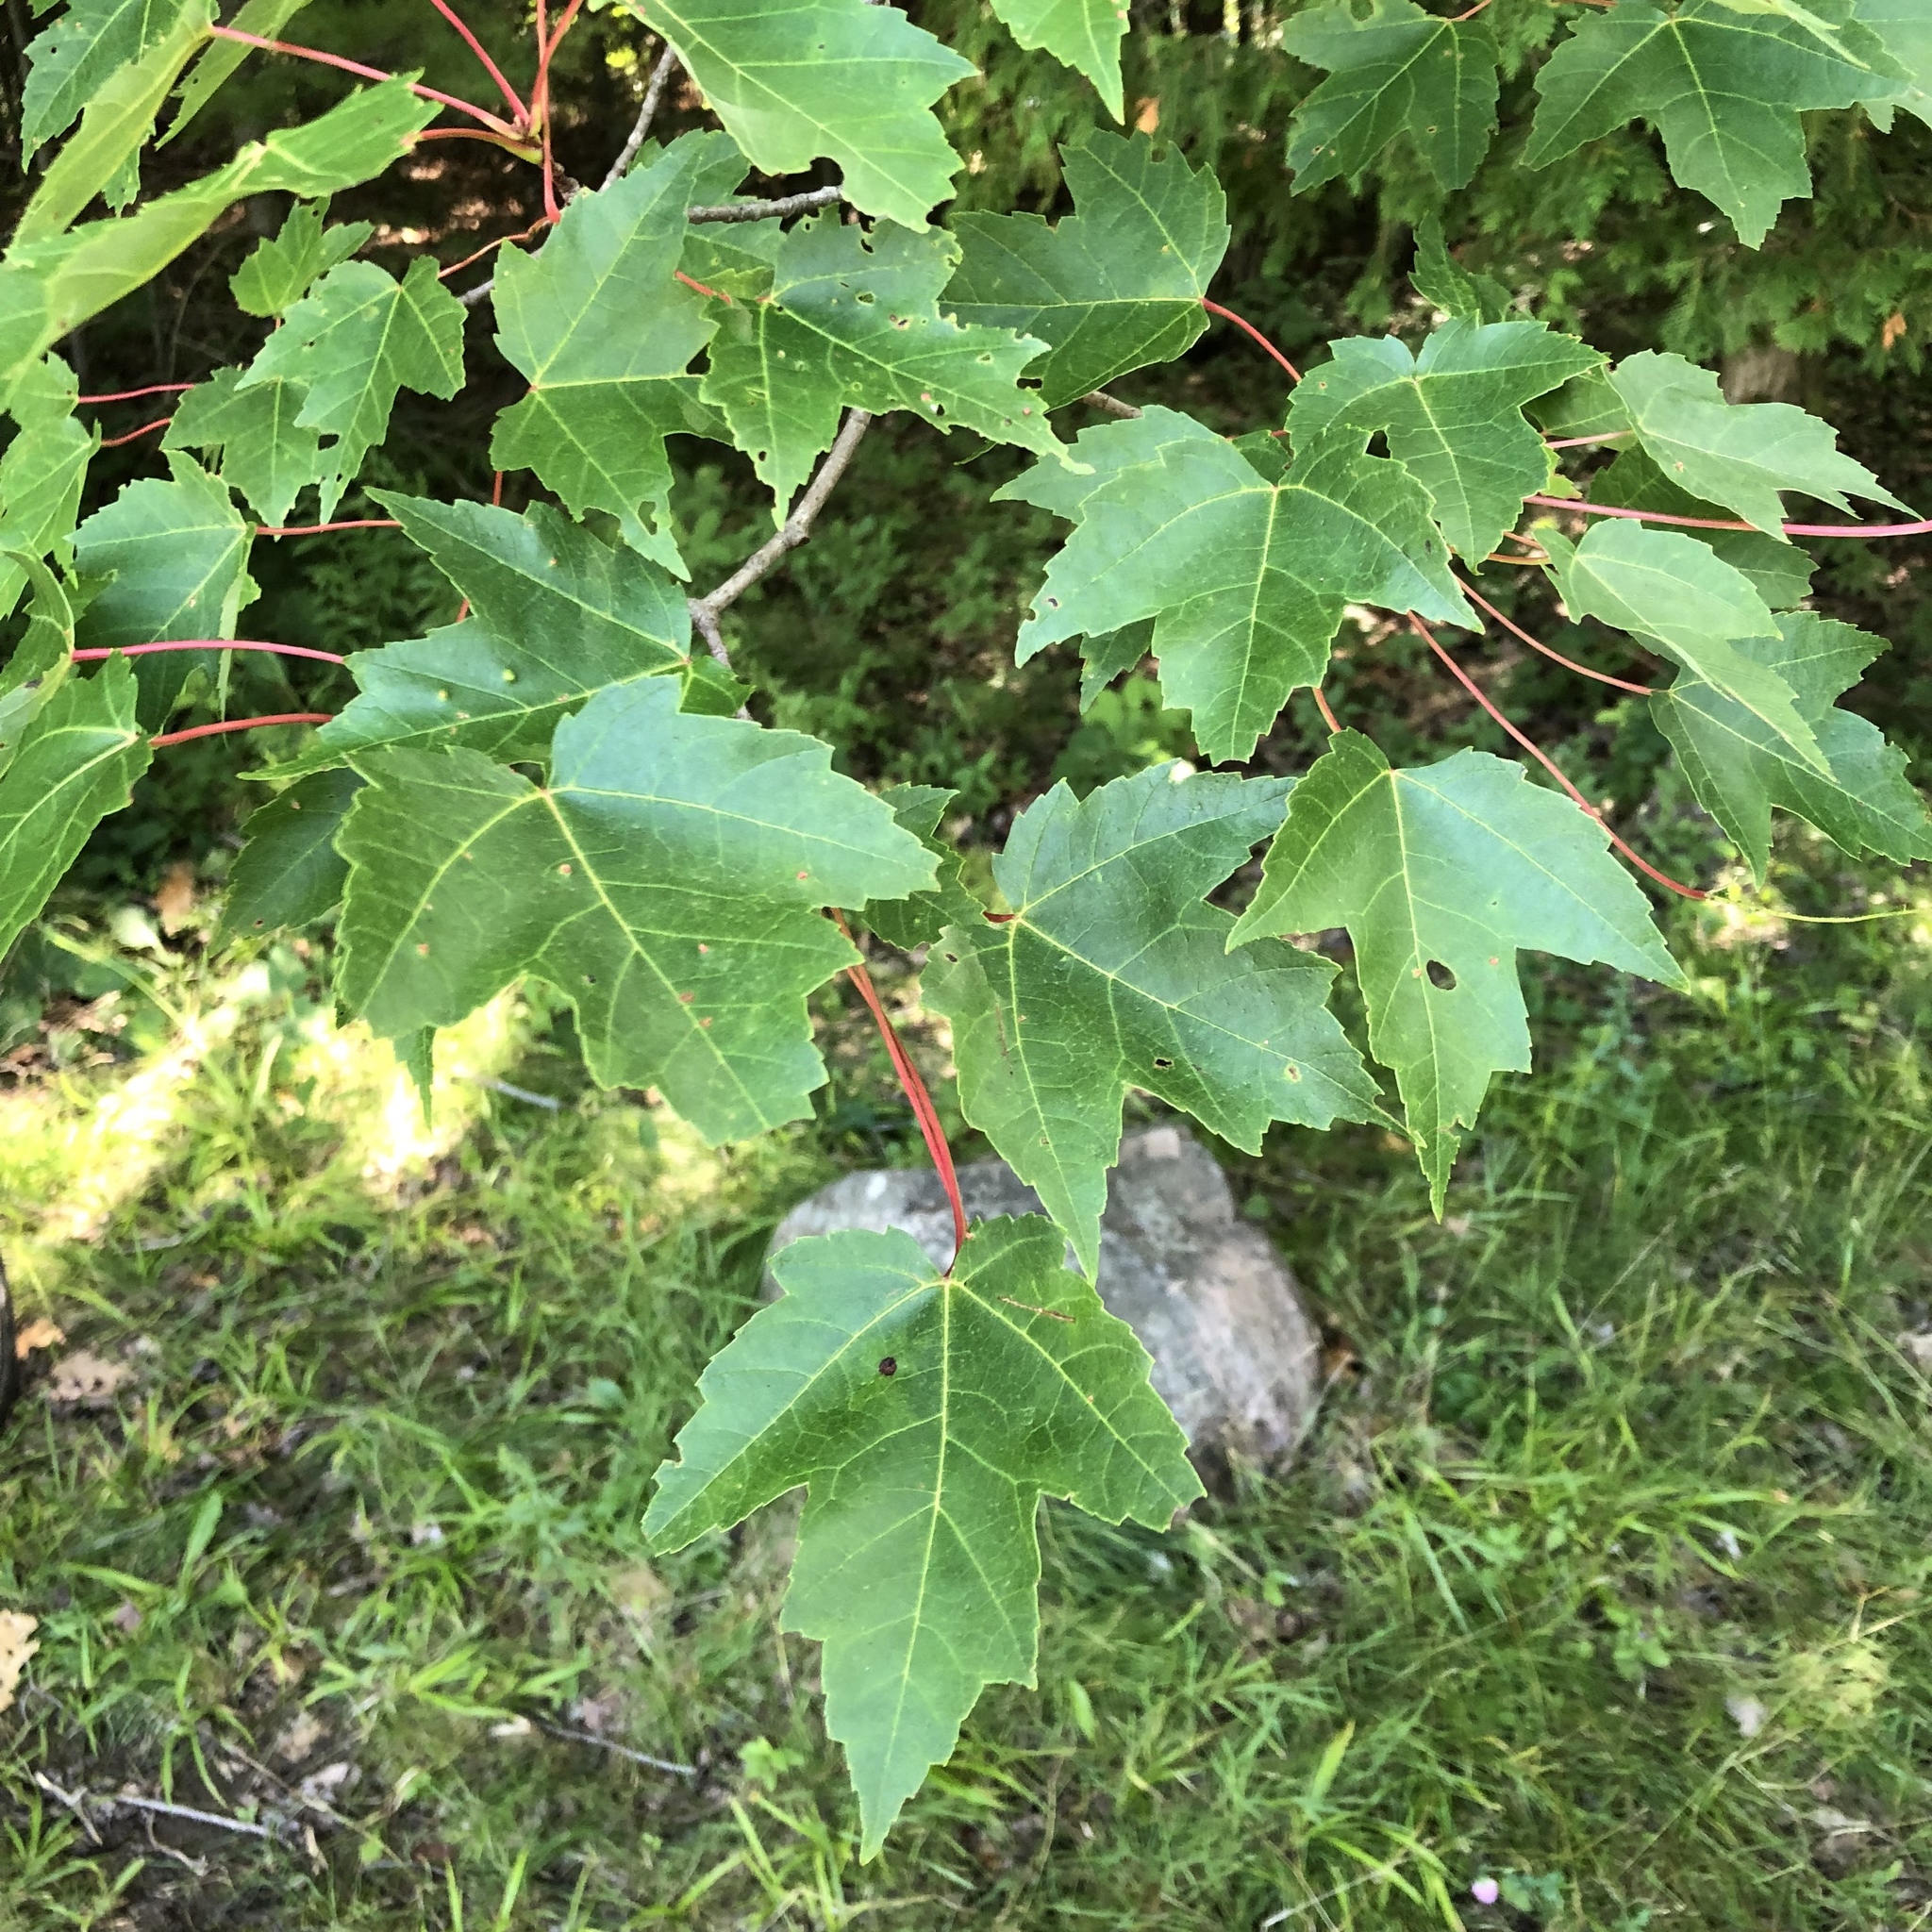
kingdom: Plantae
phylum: Tracheophyta
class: Magnoliopsida
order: Sapindales
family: Sapindaceae
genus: Acer
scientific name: Acer rubrum
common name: Red maple
